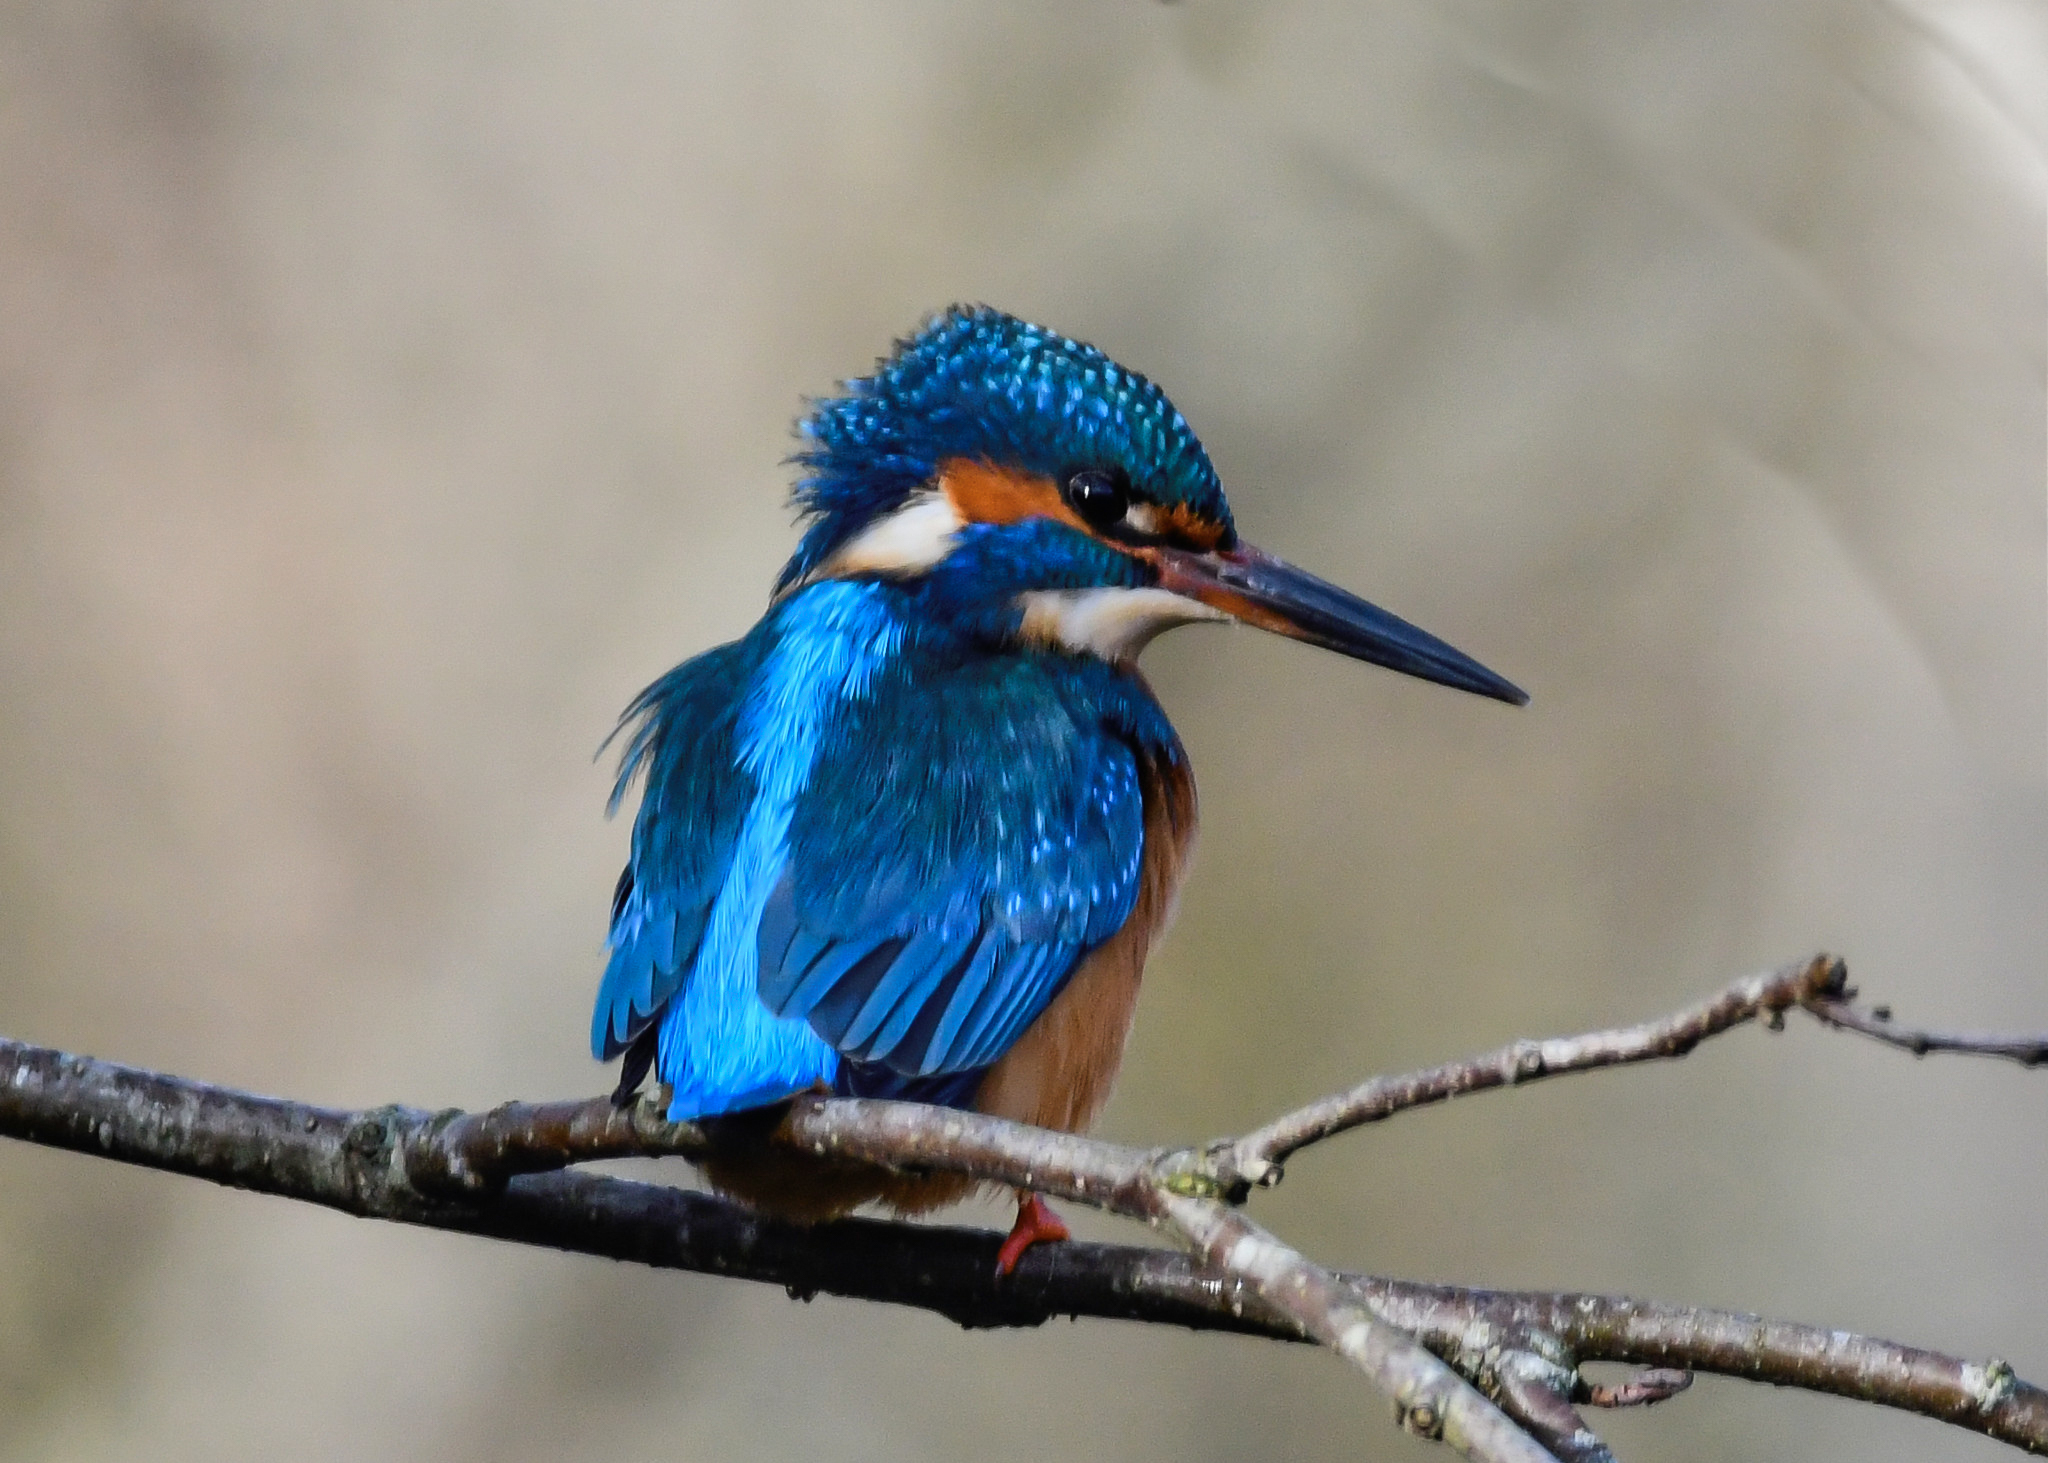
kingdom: Animalia
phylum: Chordata
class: Aves
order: Coraciiformes
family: Alcedinidae
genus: Alcedo
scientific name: Alcedo atthis
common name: Common kingfisher
